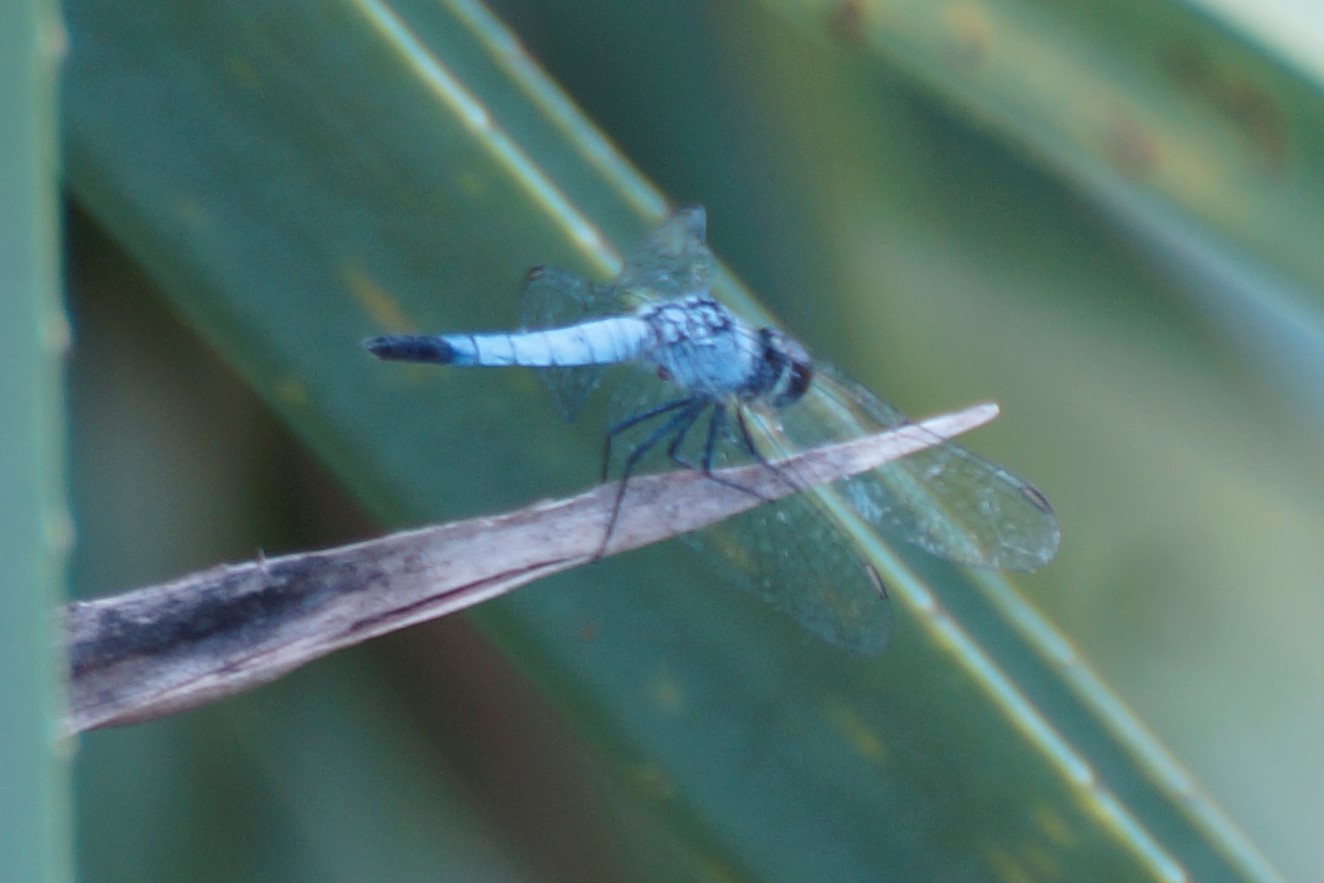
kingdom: Animalia
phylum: Arthropoda
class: Insecta
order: Odonata
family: Libellulidae
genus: Brachydiplax
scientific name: Brachydiplax denticauda
